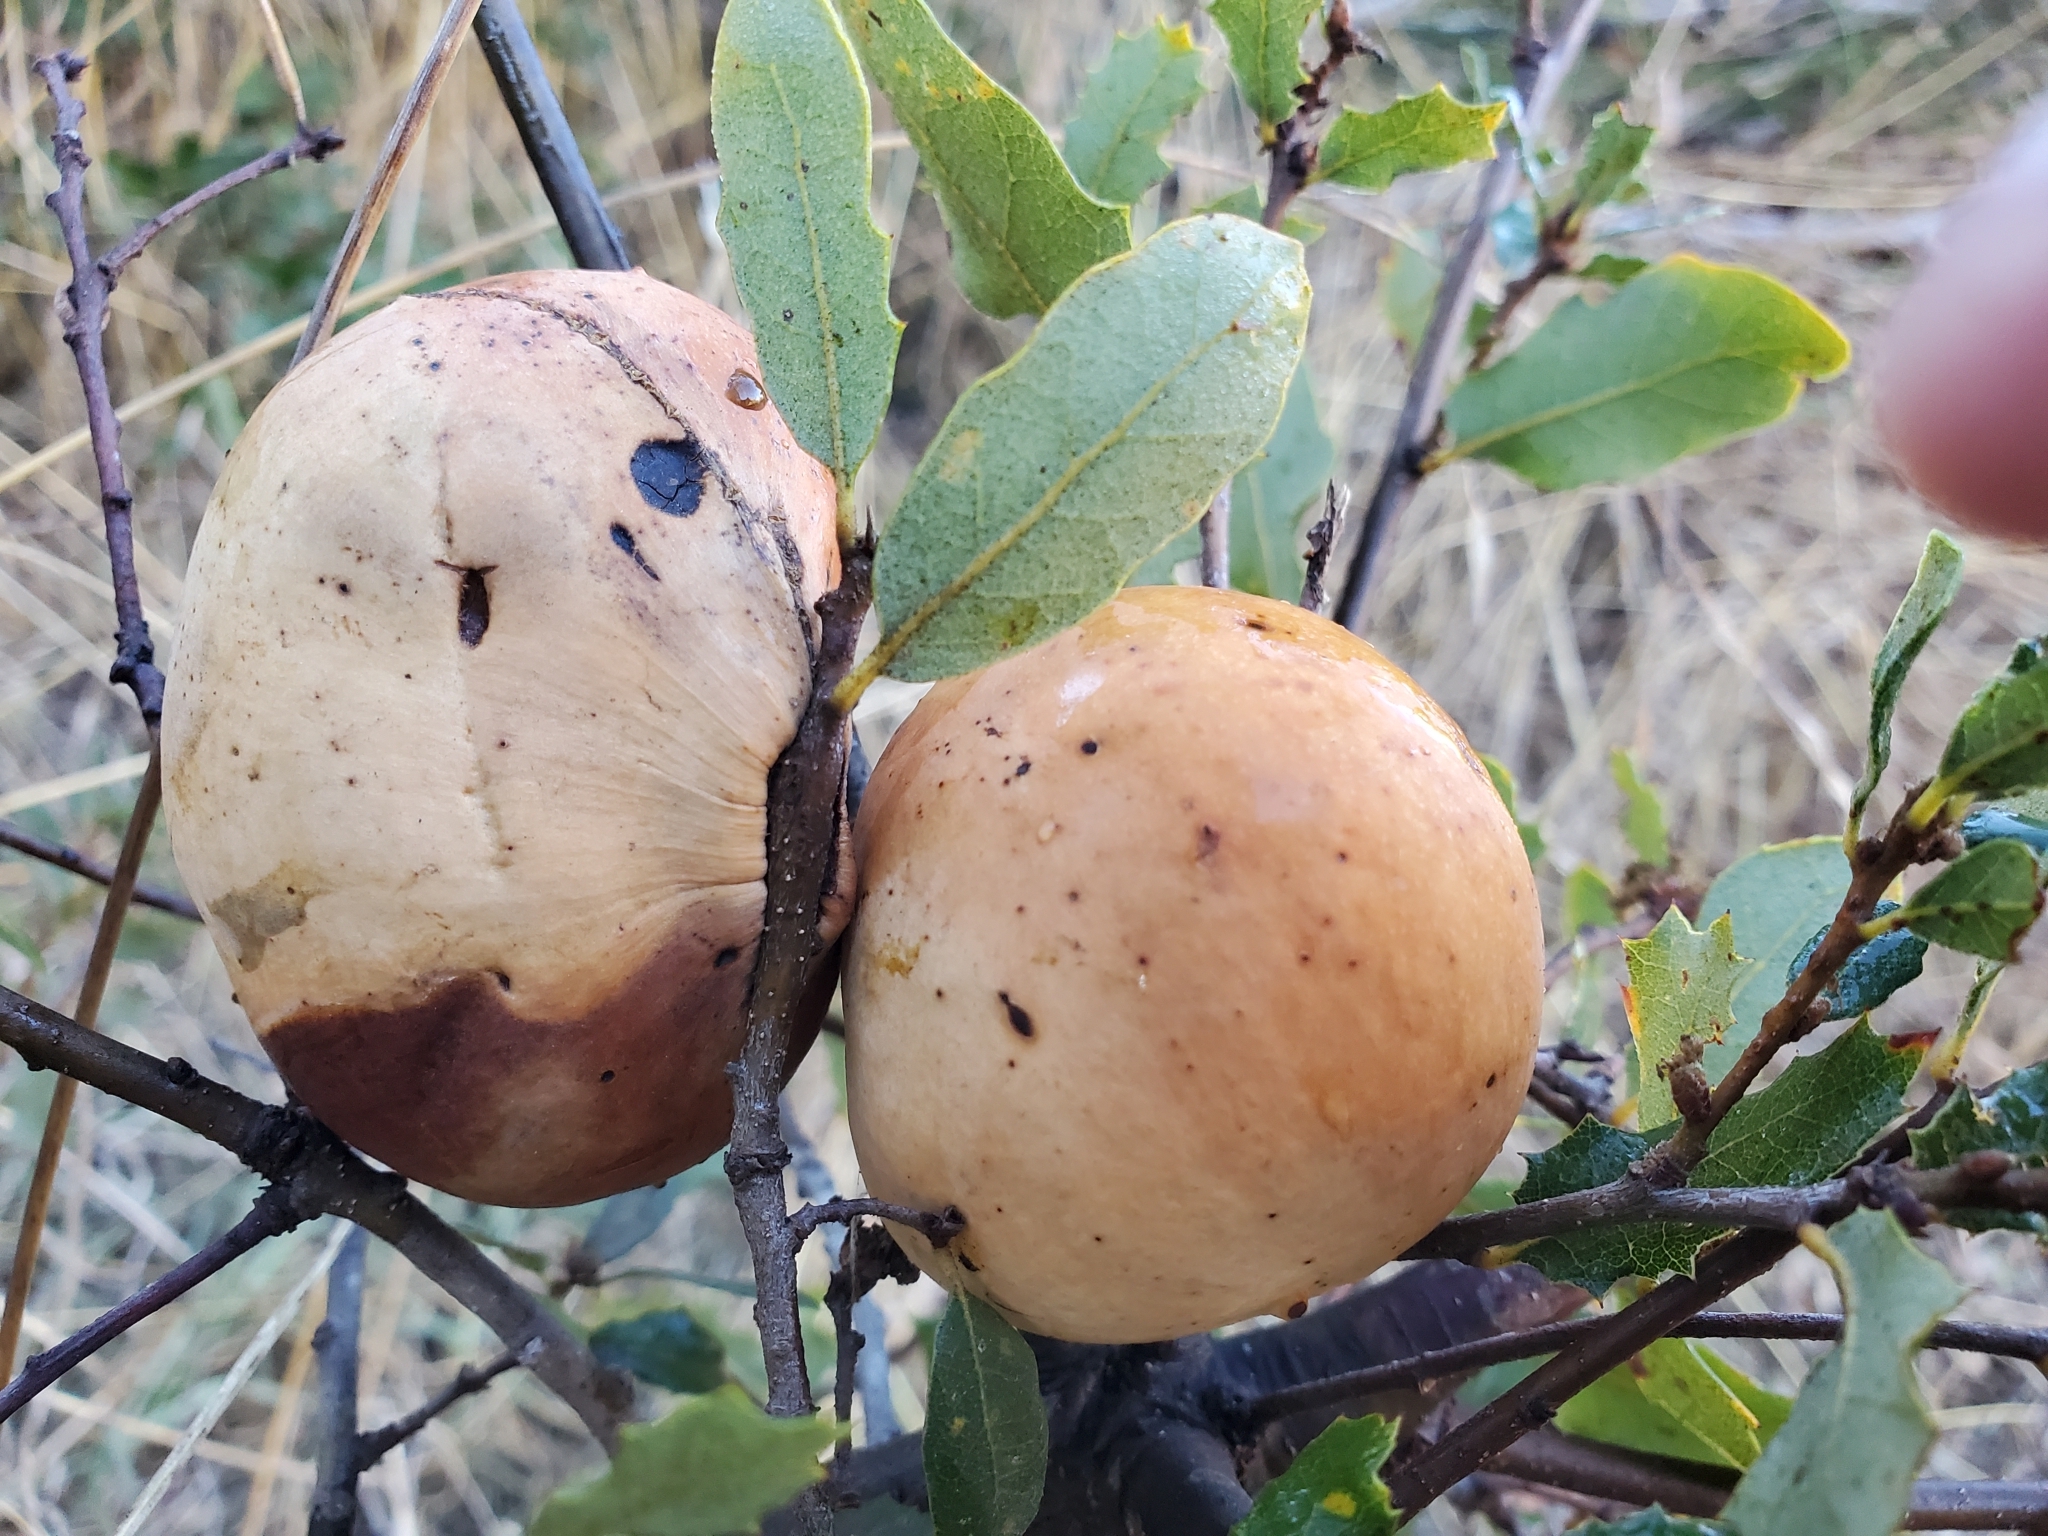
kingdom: Animalia
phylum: Arthropoda
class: Insecta
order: Hymenoptera
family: Cynipidae
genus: Andricus
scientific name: Andricus quercuscalifornicus
